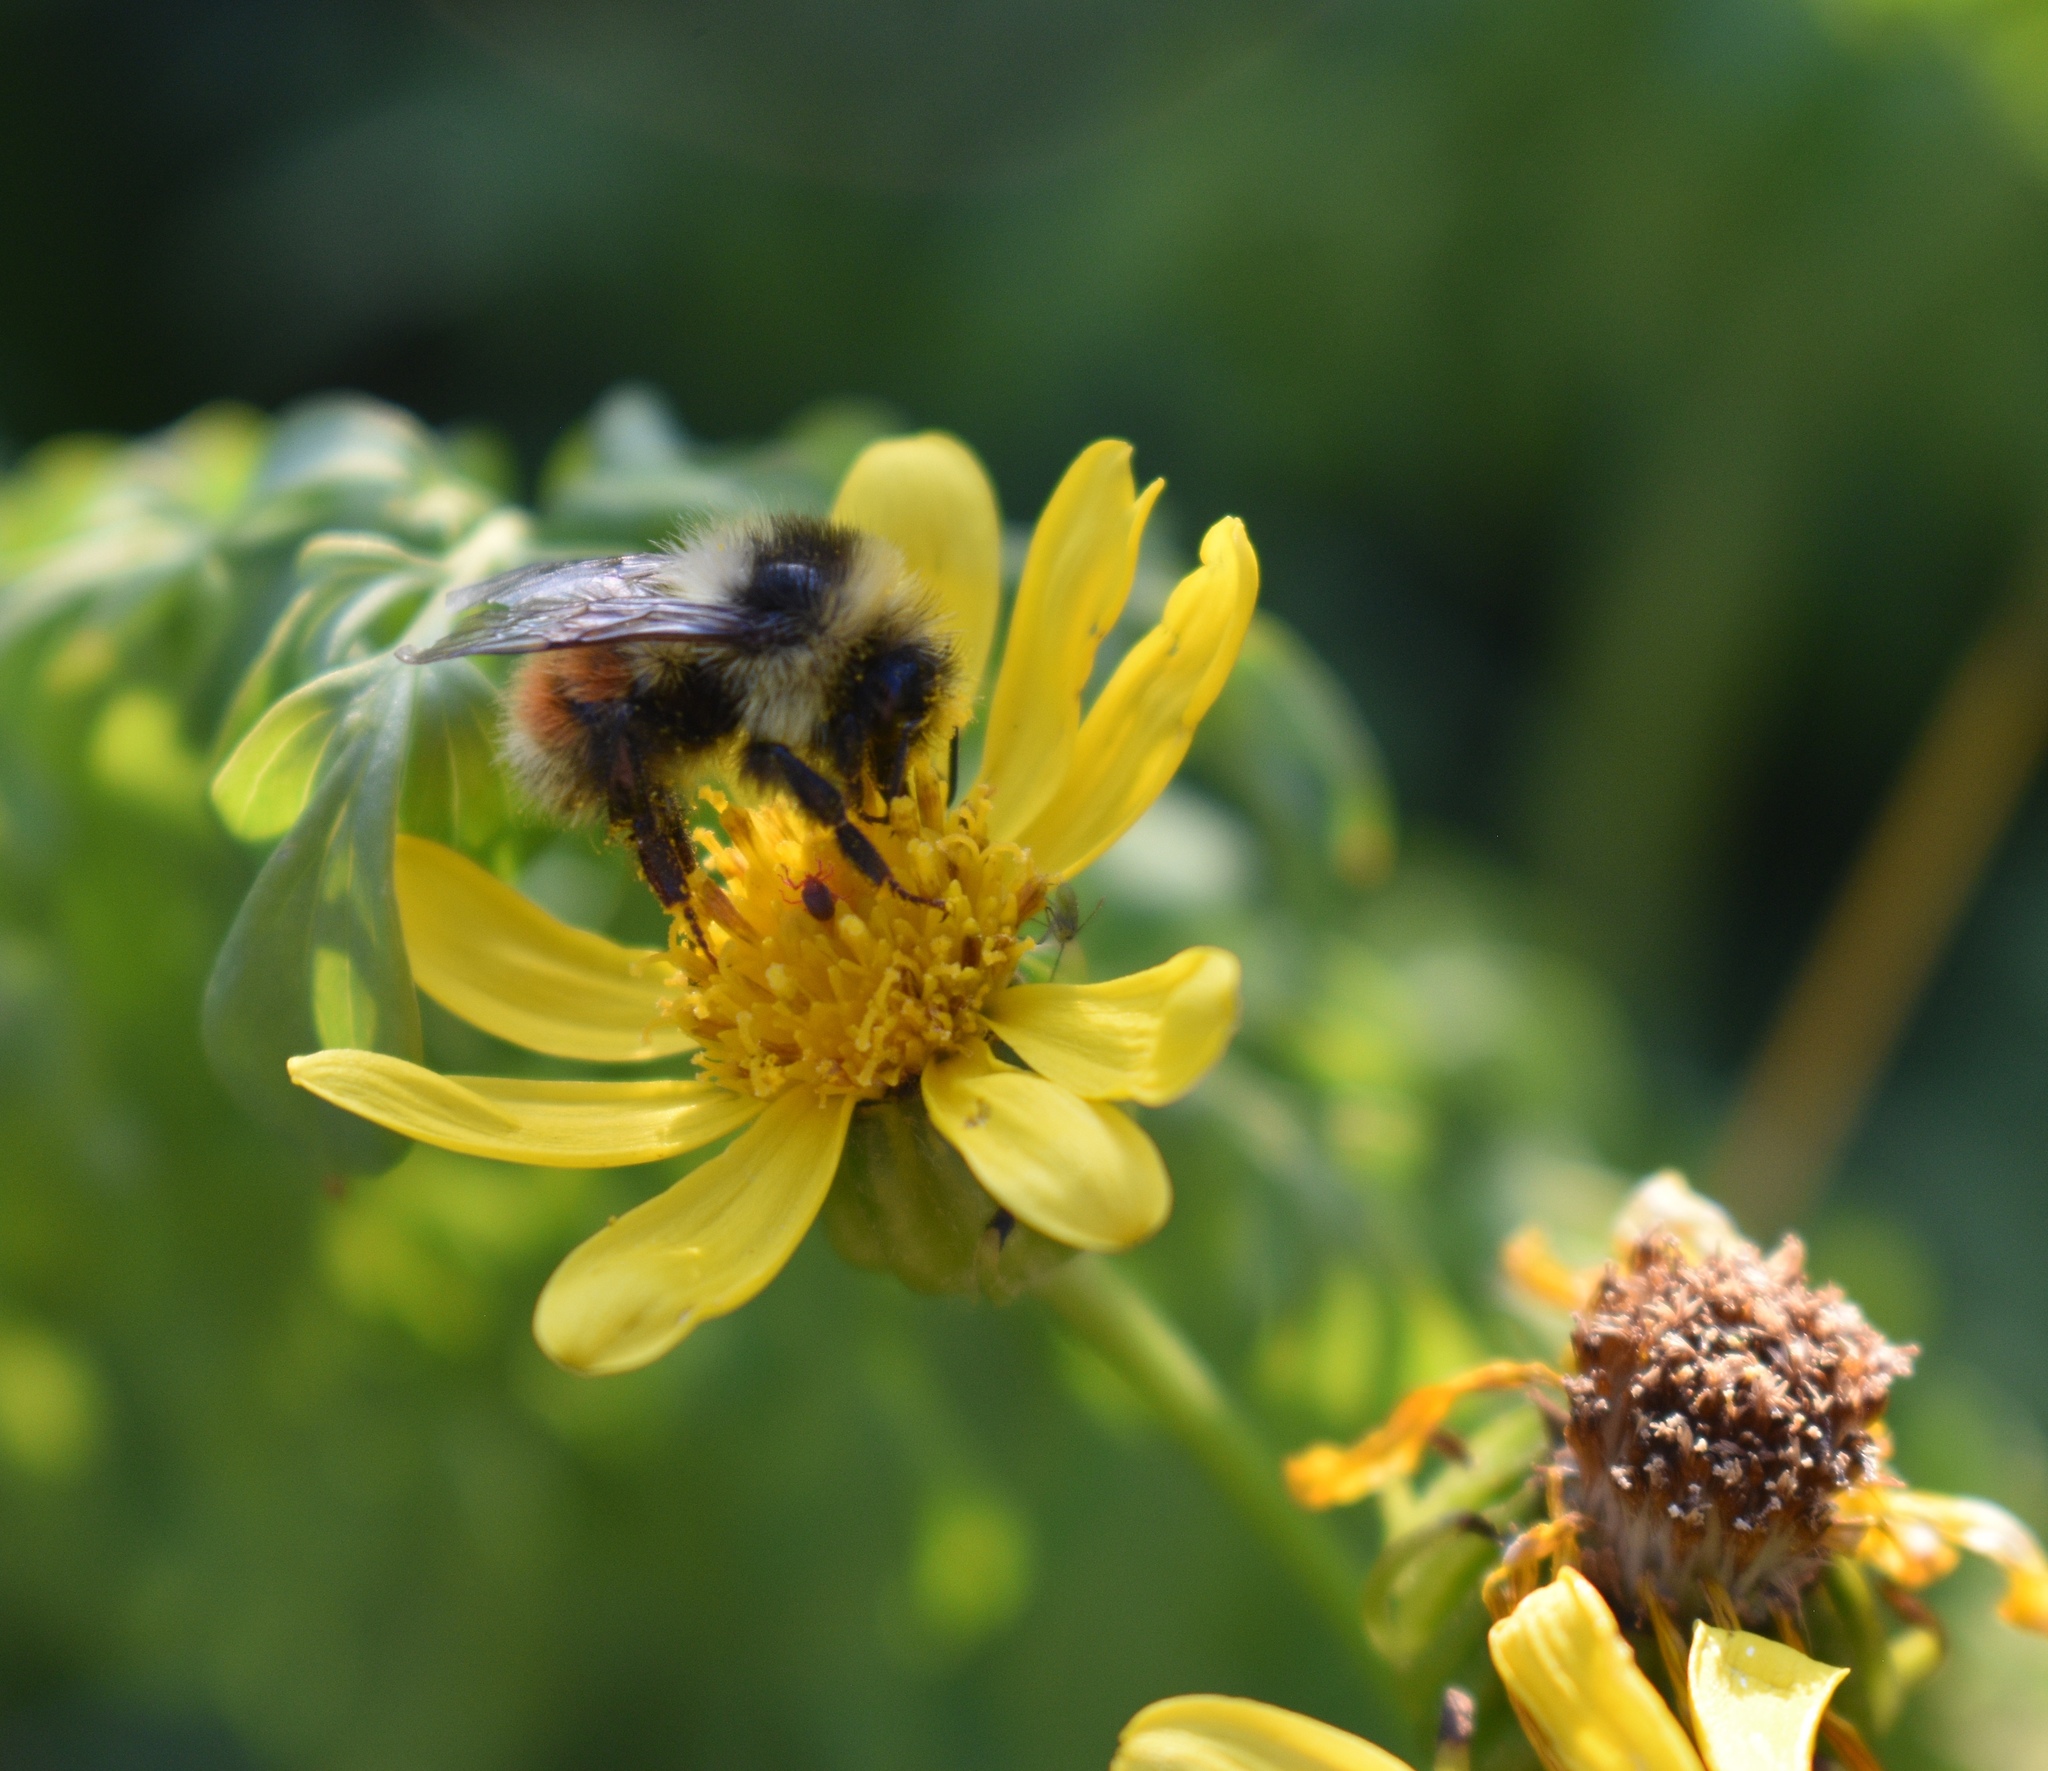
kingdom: Animalia
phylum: Arthropoda
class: Insecta
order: Hymenoptera
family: Apidae
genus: Bombus
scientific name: Bombus sylvicola
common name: Forest bumble bee
